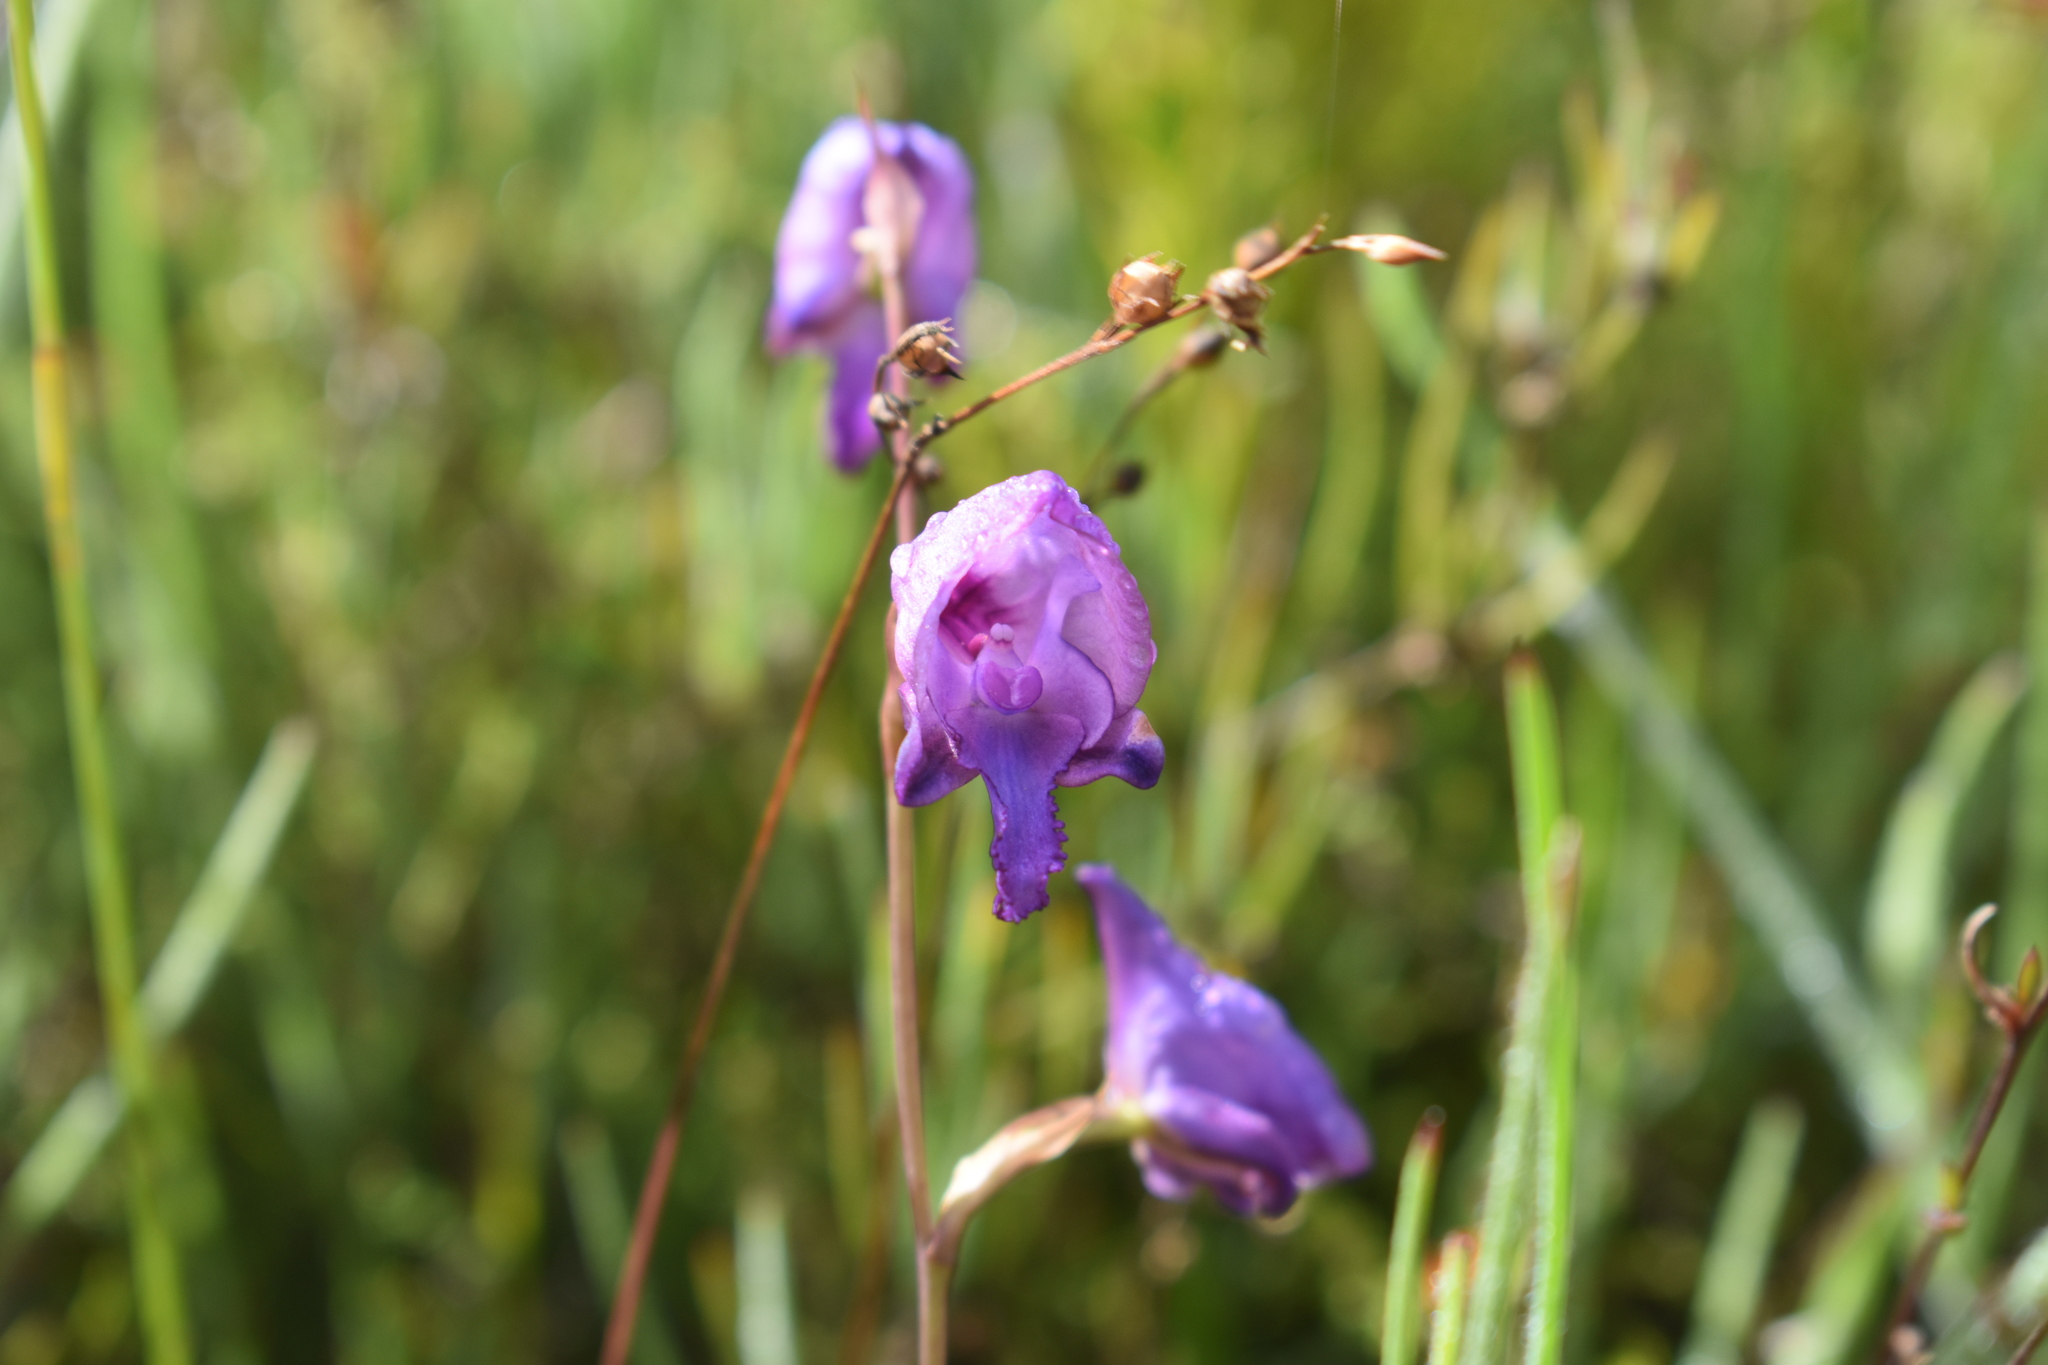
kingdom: Plantae
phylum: Tracheophyta
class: Liliopsida
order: Asparagales
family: Orchidaceae
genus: Disa
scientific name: Disa hians
